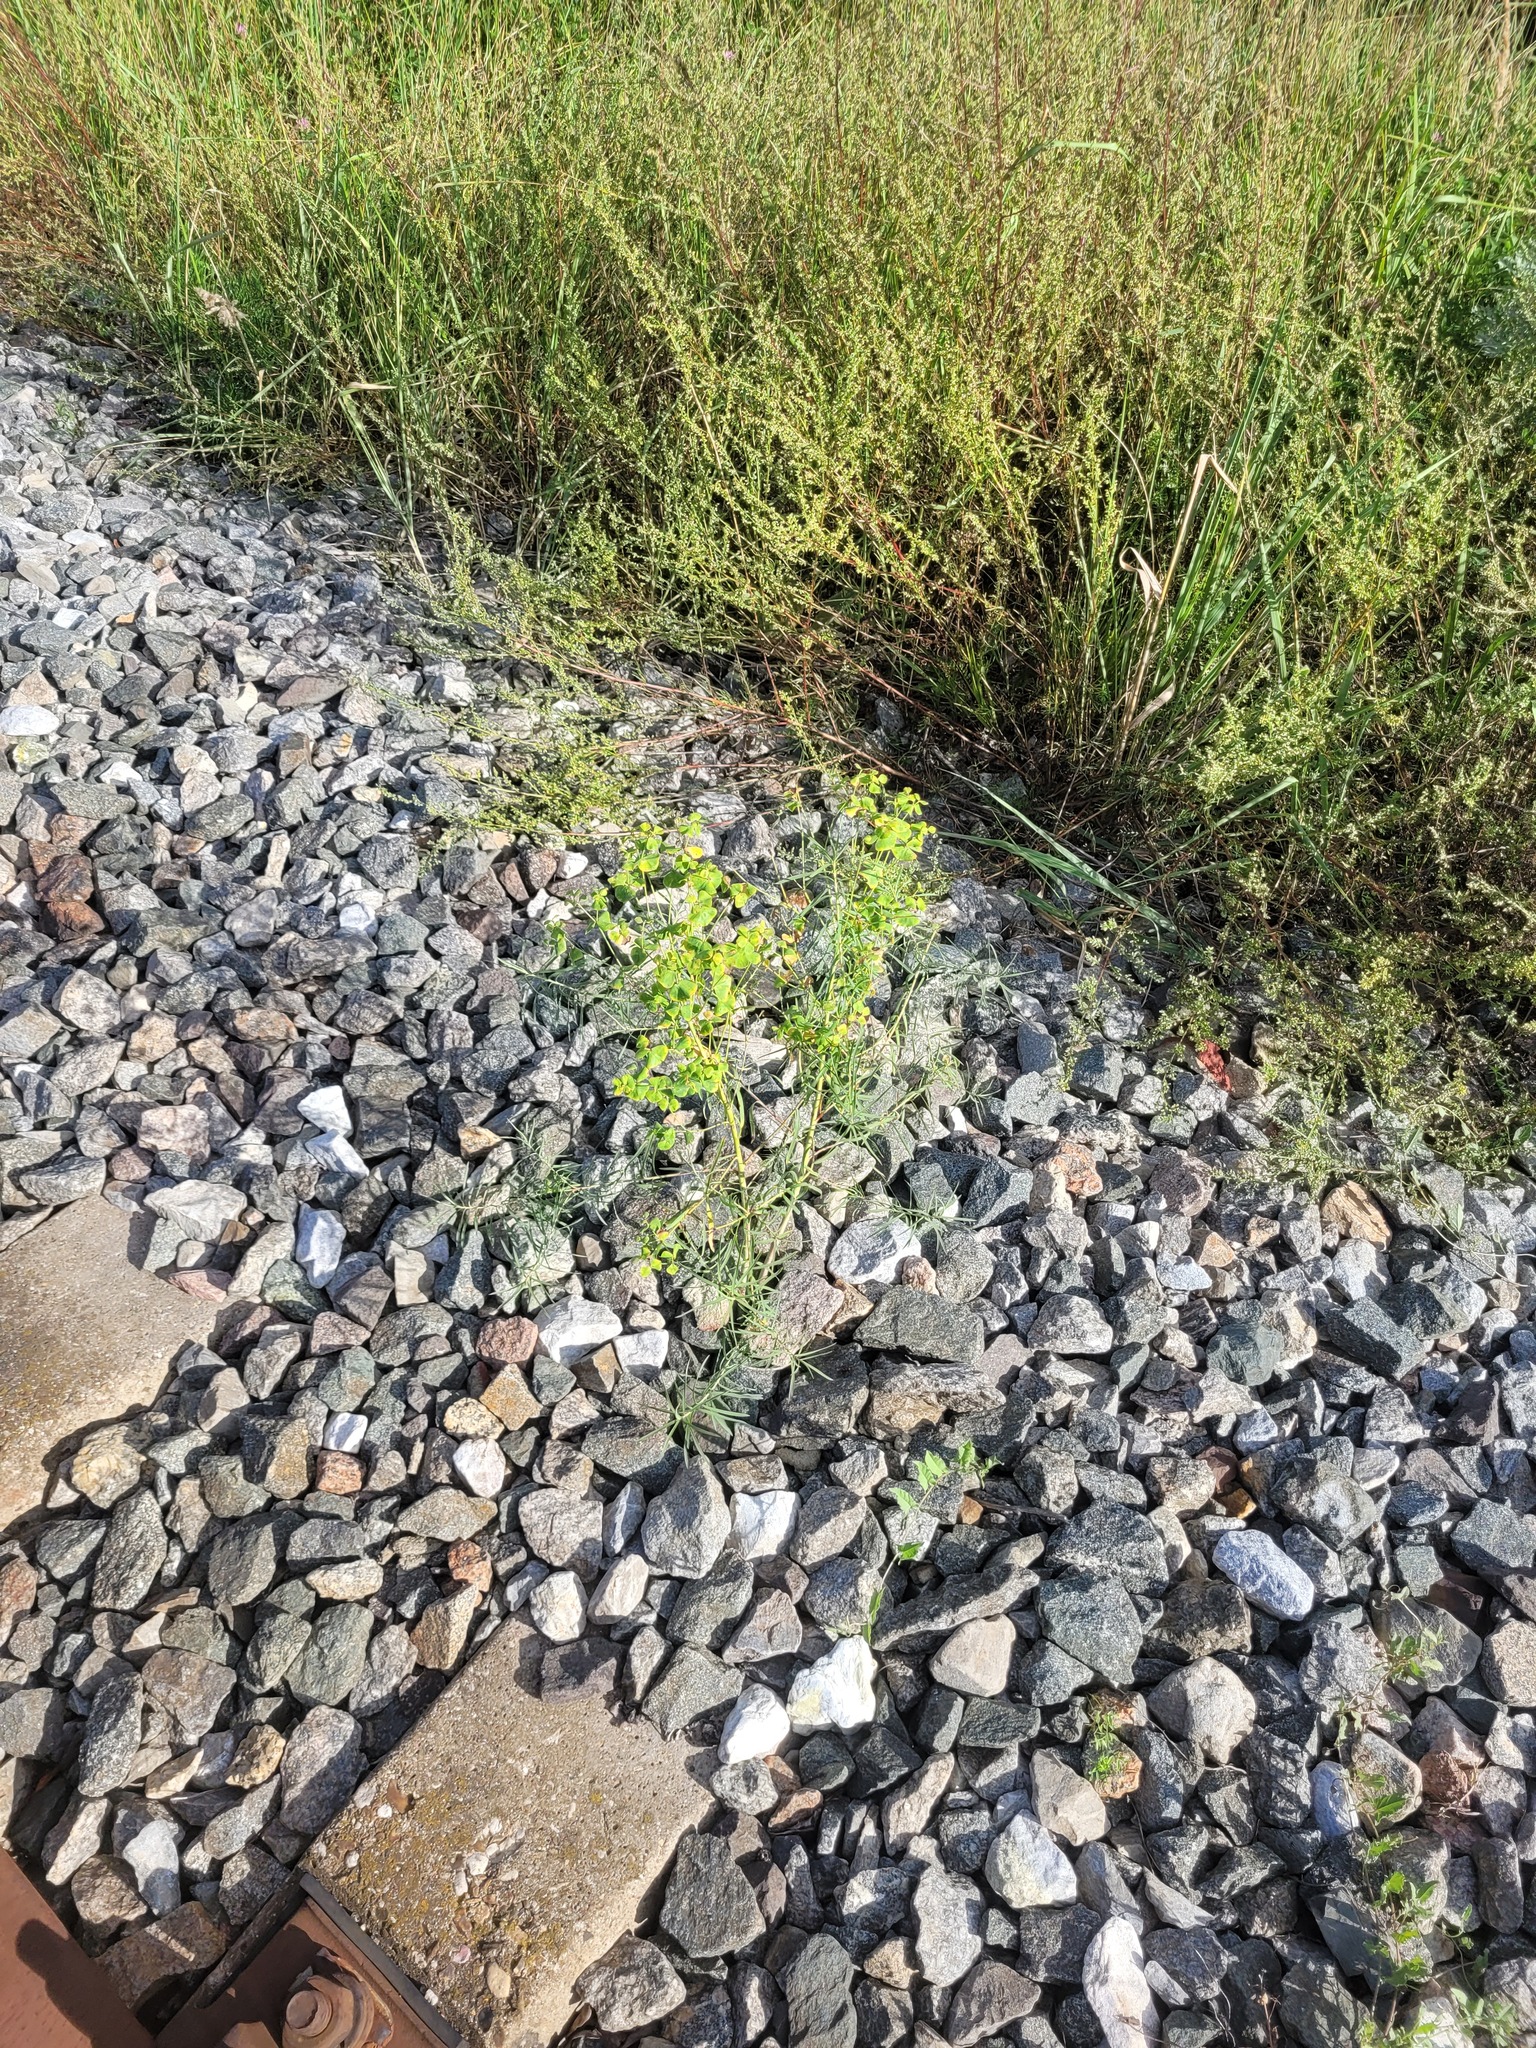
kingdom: Plantae
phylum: Tracheophyta
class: Magnoliopsida
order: Malpighiales
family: Euphorbiaceae
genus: Euphorbia
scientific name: Euphorbia virgata
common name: Leafy spurge
